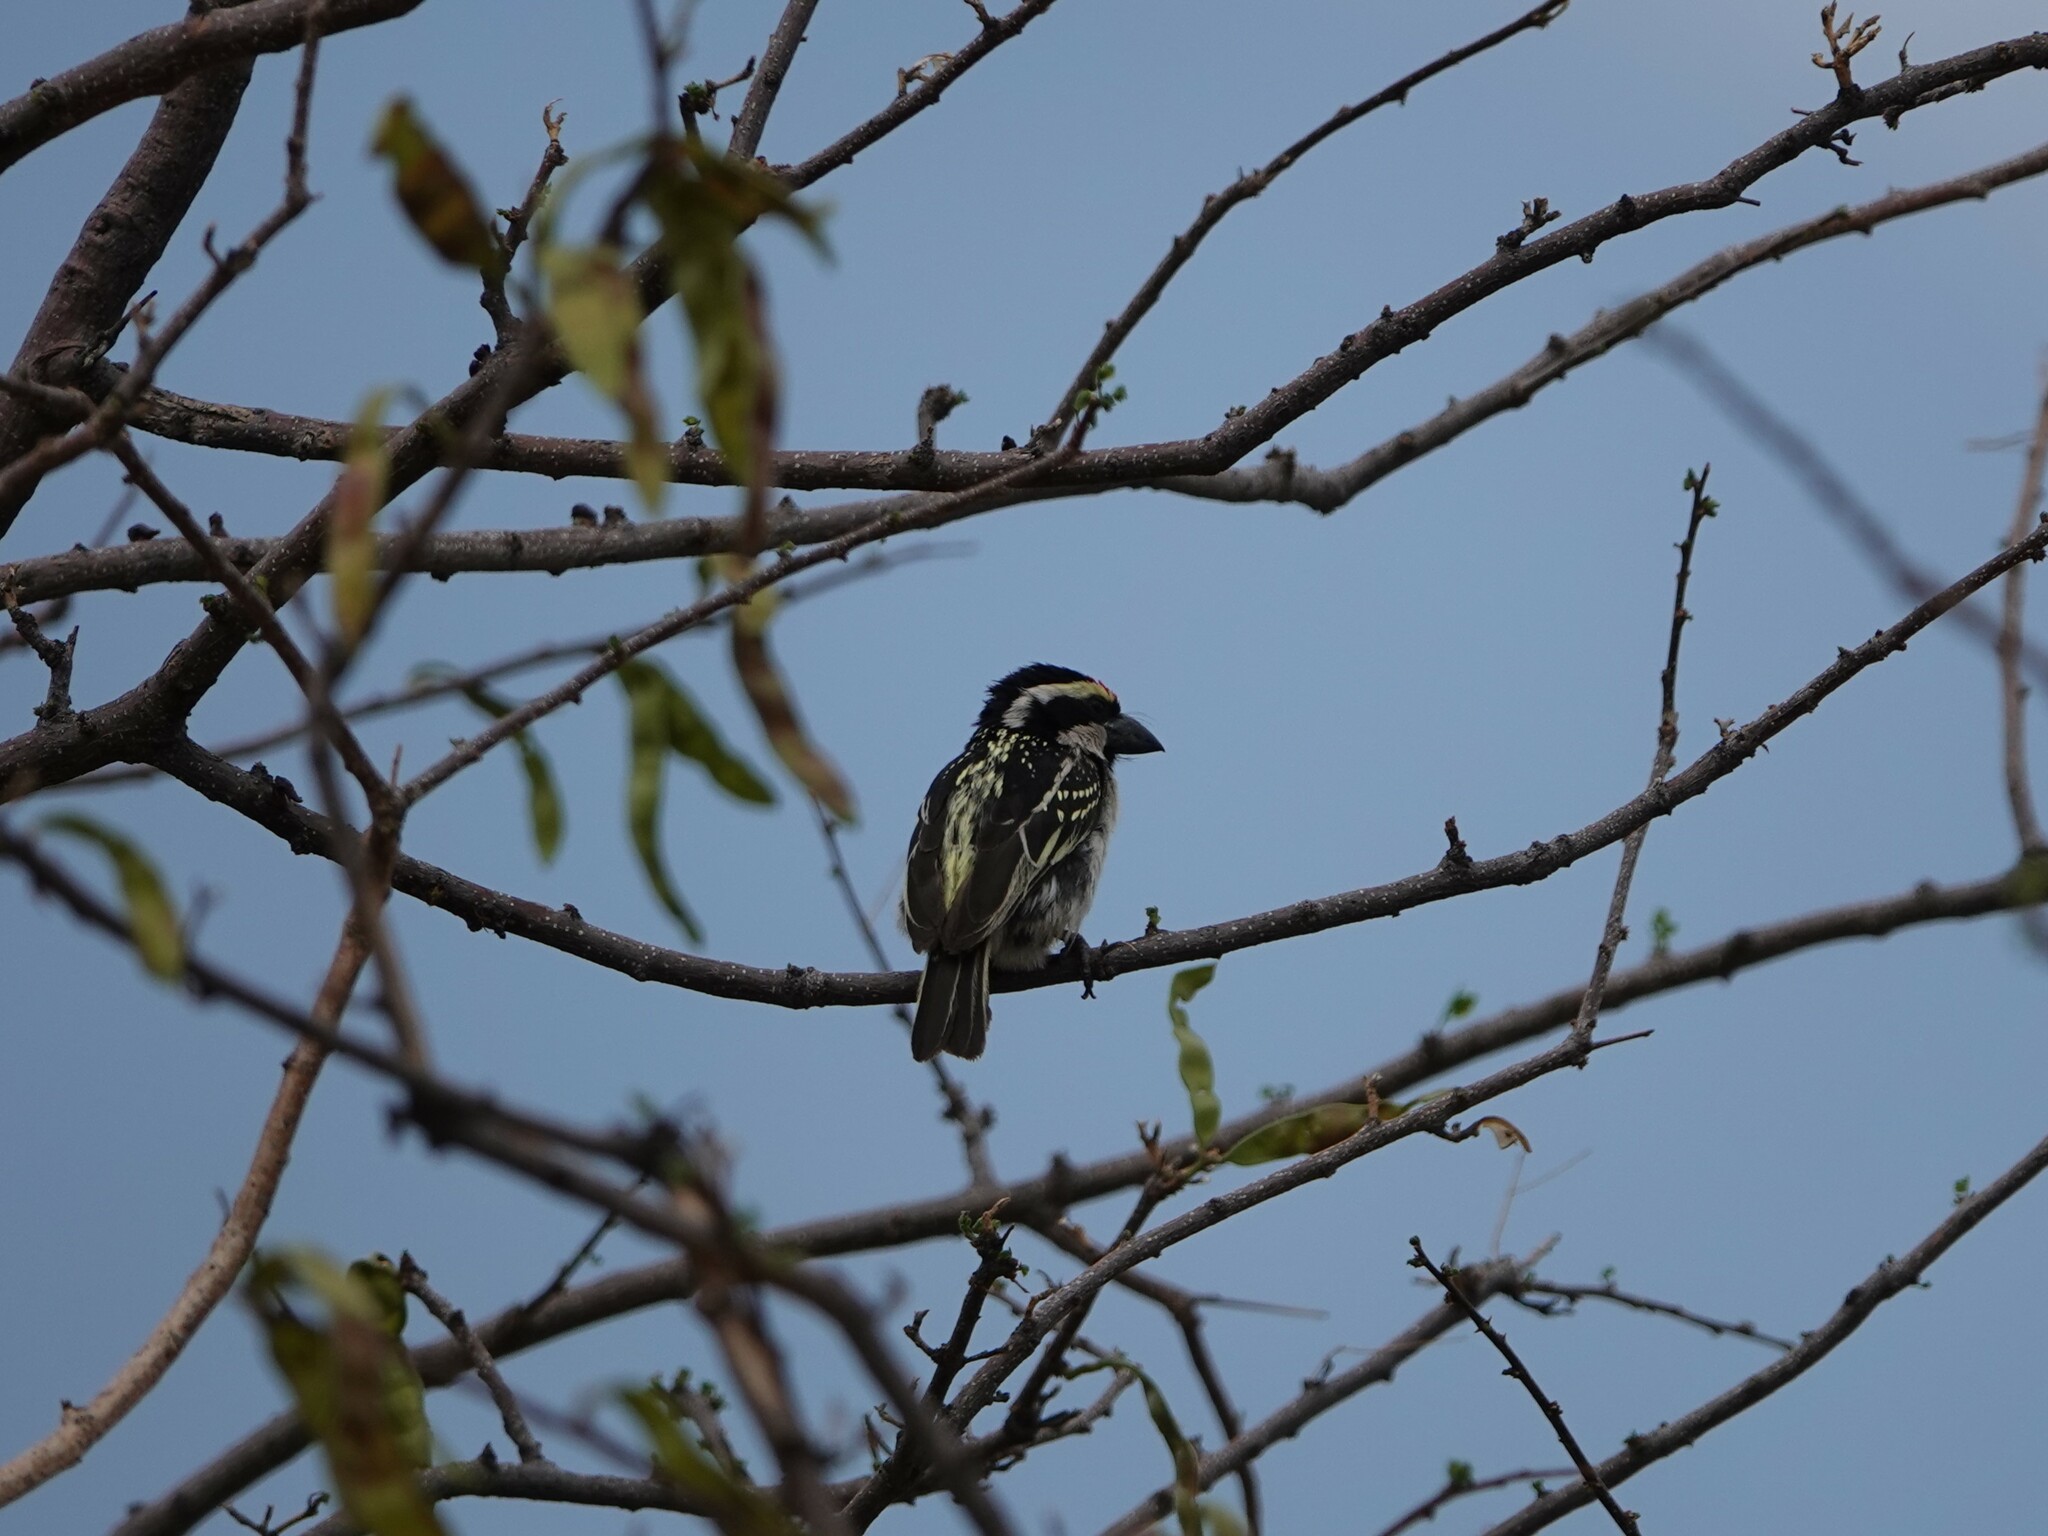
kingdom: Animalia
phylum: Chordata
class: Aves
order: Piciformes
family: Lybiidae
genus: Tricholaema
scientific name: Tricholaema leucomelas
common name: Acacia pied barbet
